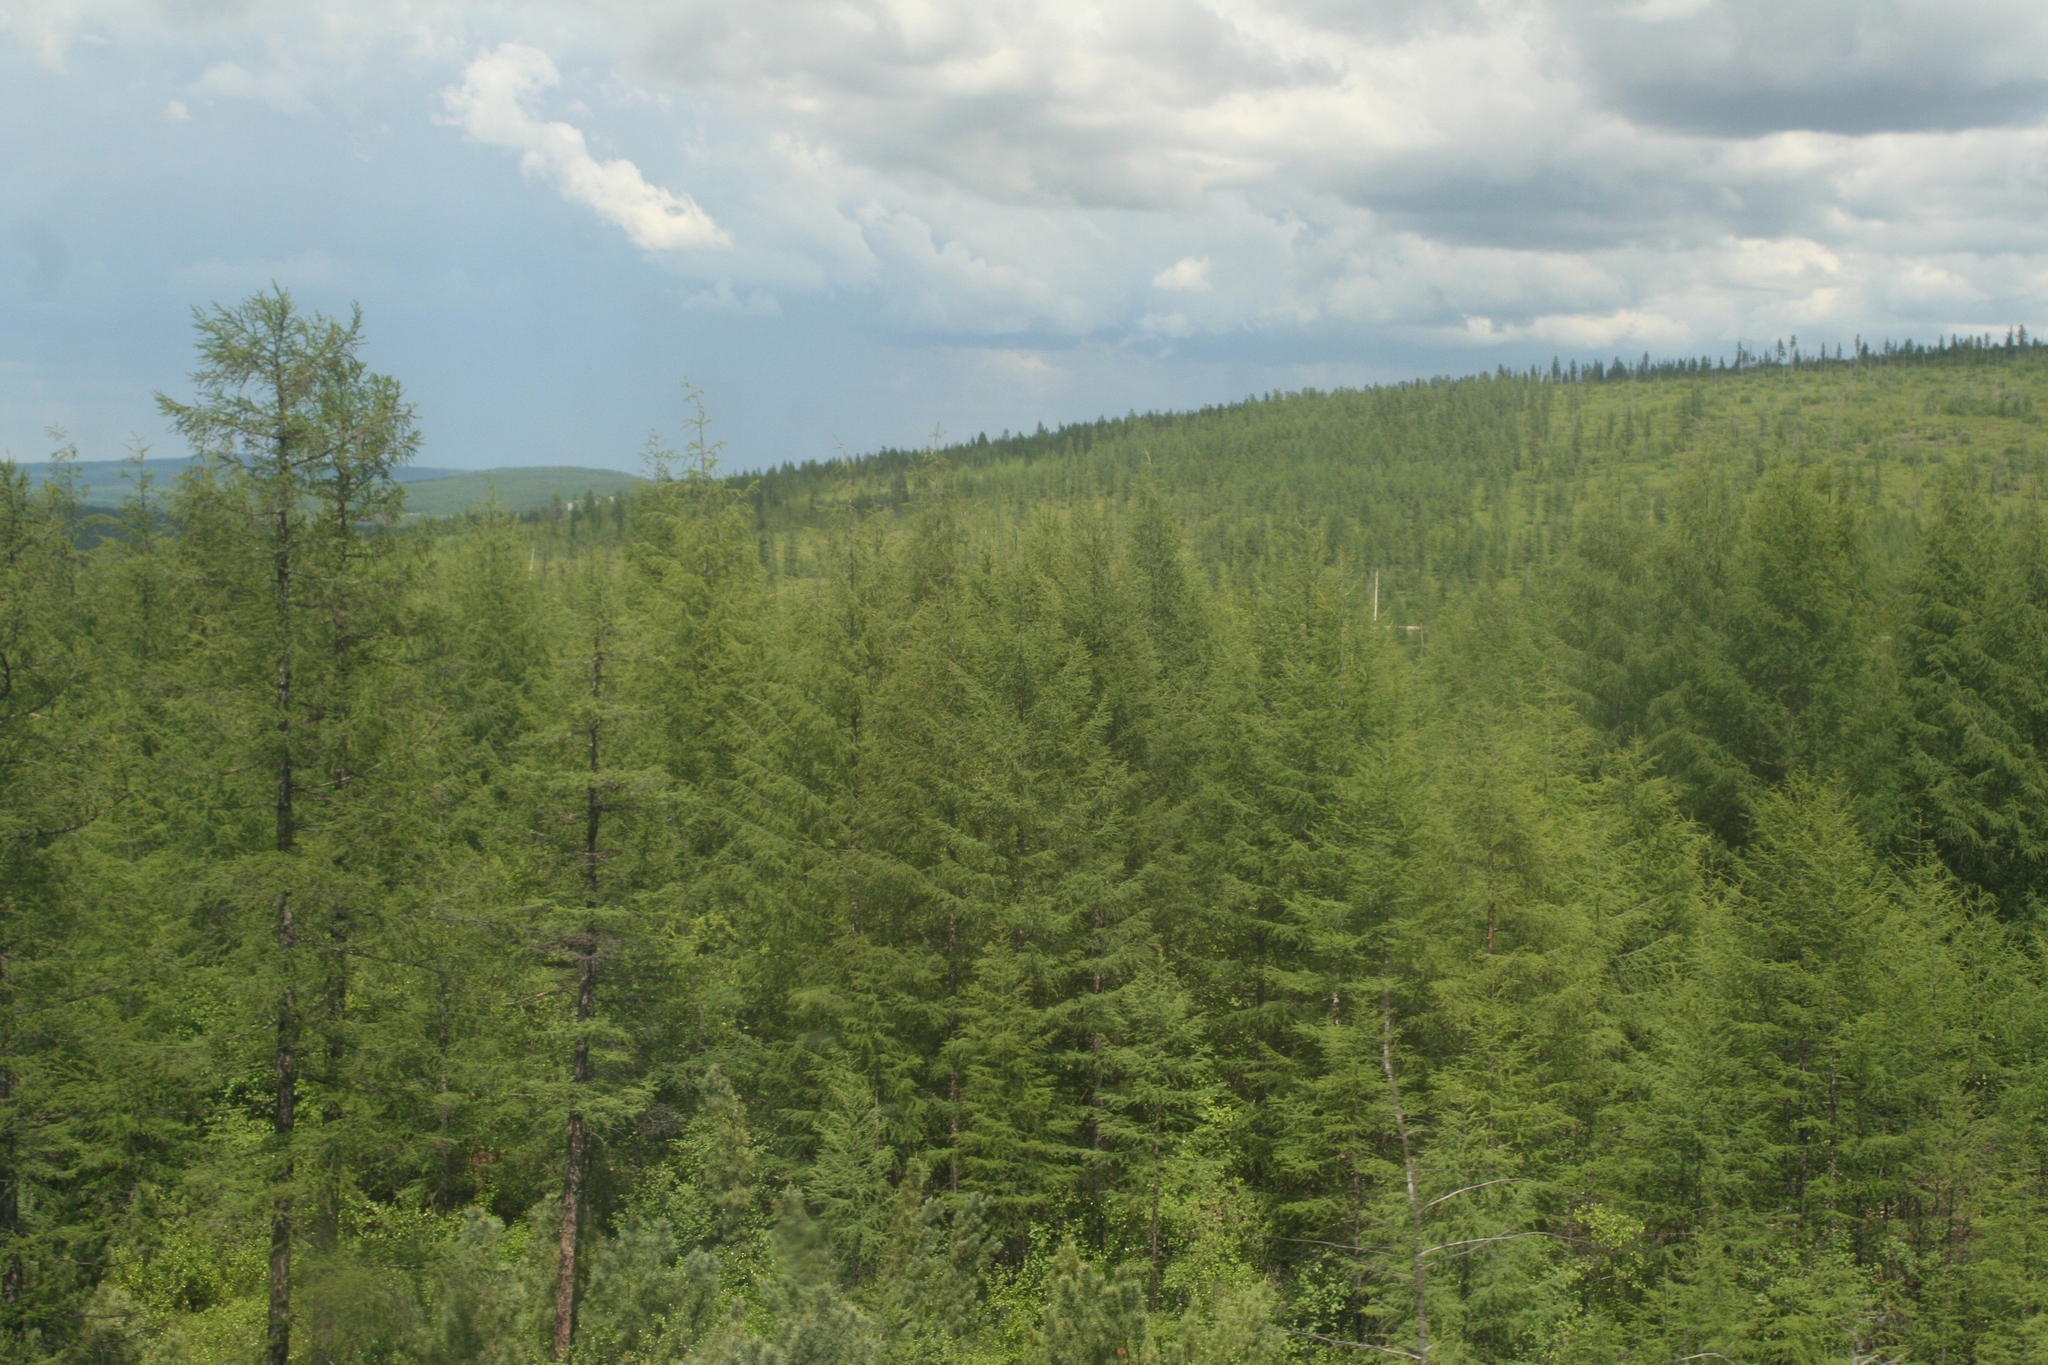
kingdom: Plantae
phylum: Tracheophyta
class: Pinopsida
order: Pinales
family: Pinaceae
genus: Larix
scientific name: Larix gmelinii
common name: Dahurian larch
